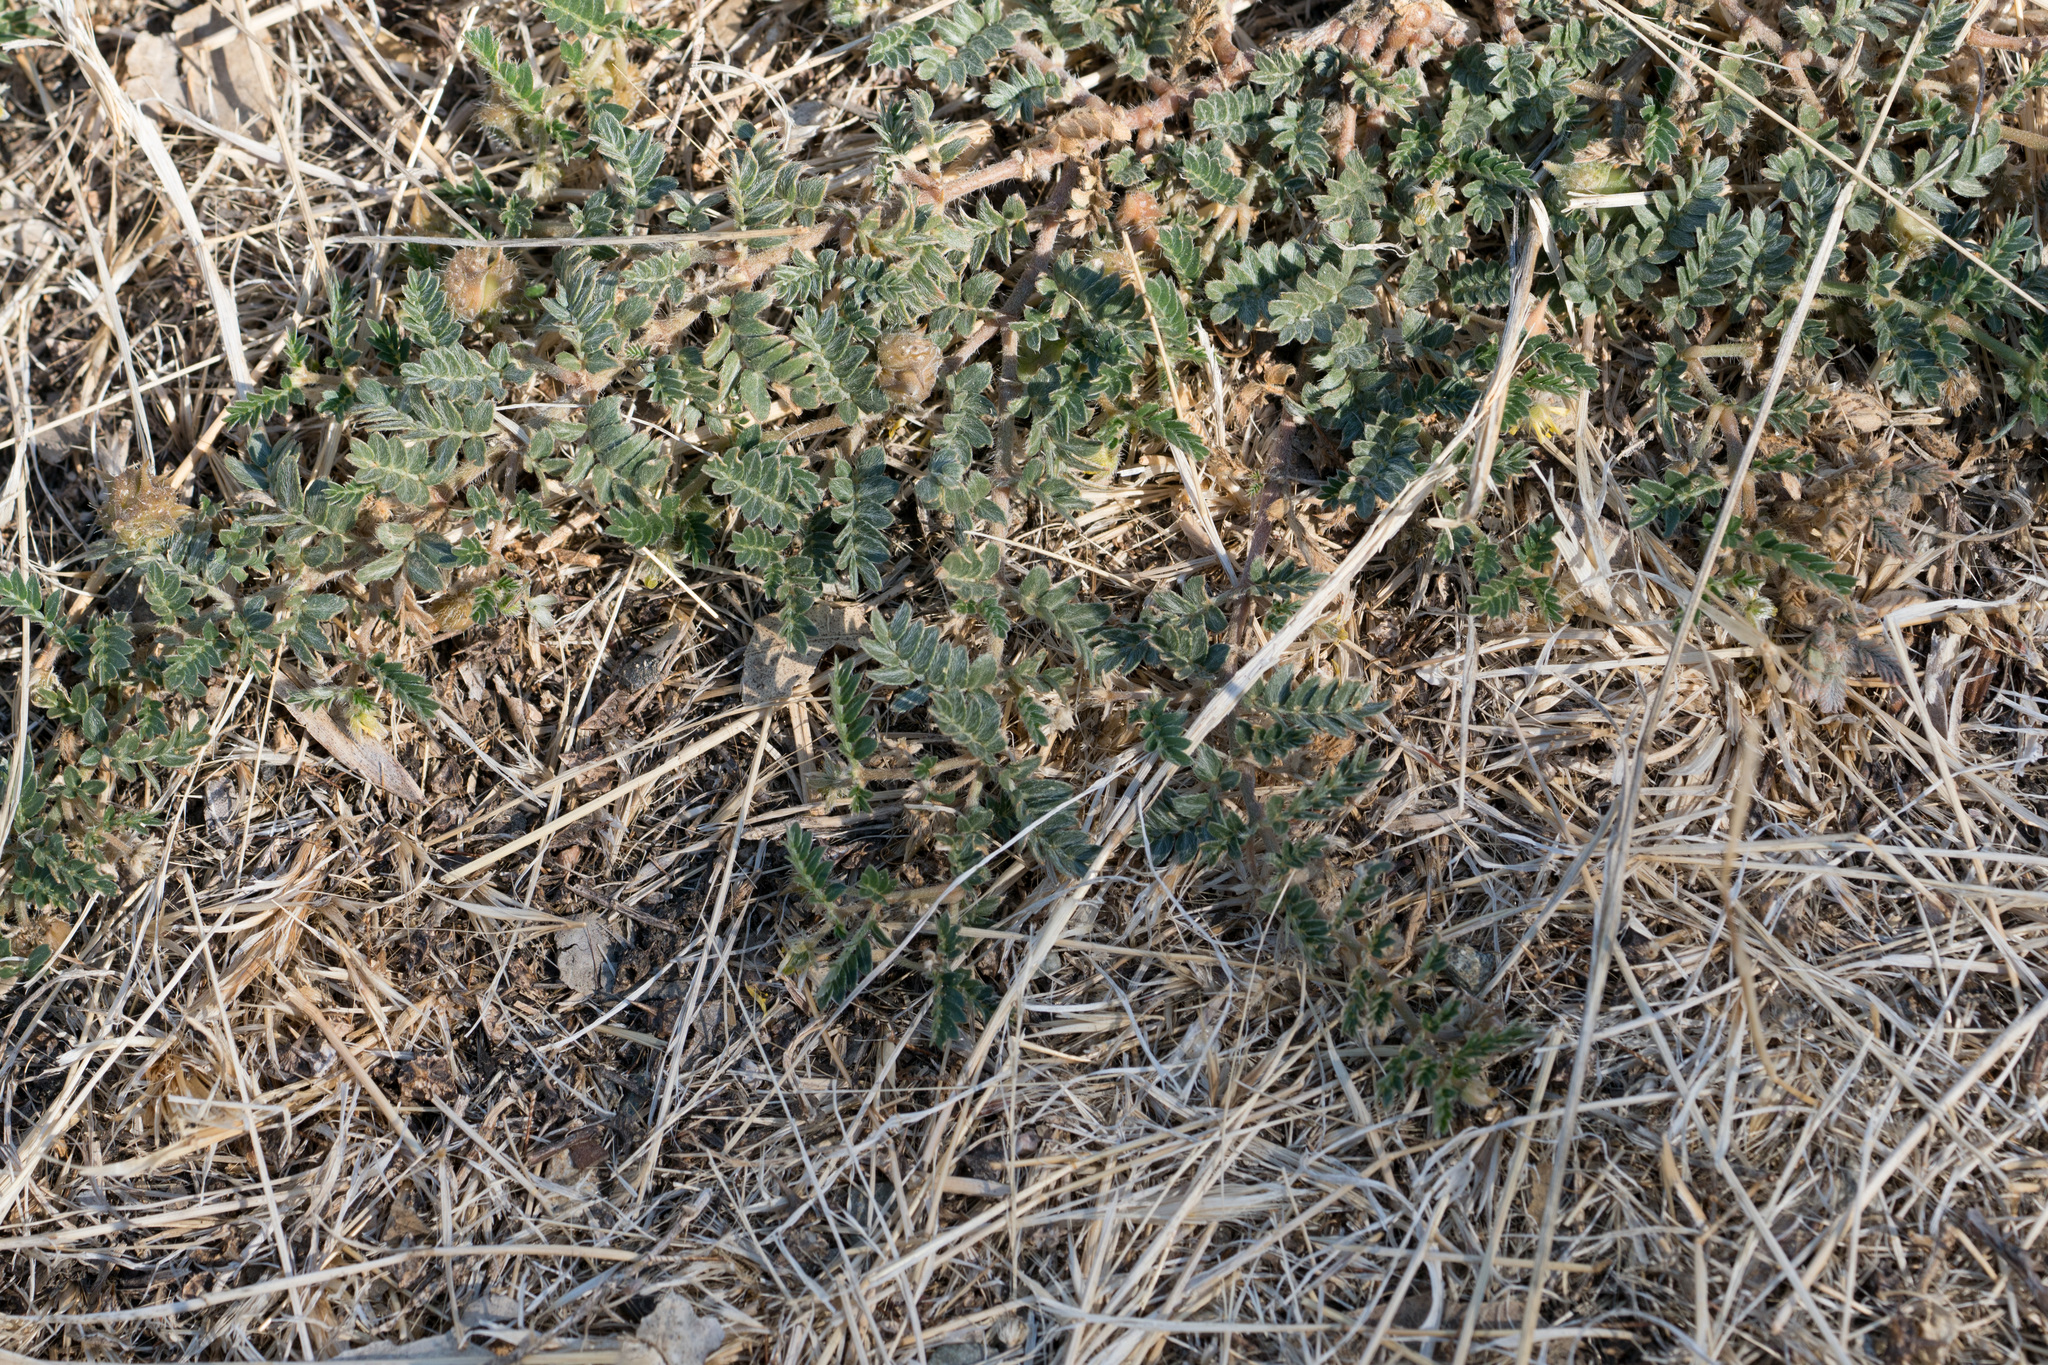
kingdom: Plantae
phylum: Tracheophyta
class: Magnoliopsida
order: Zygophyllales
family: Zygophyllaceae
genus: Tribulus
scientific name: Tribulus terrestris
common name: Puncturevine
